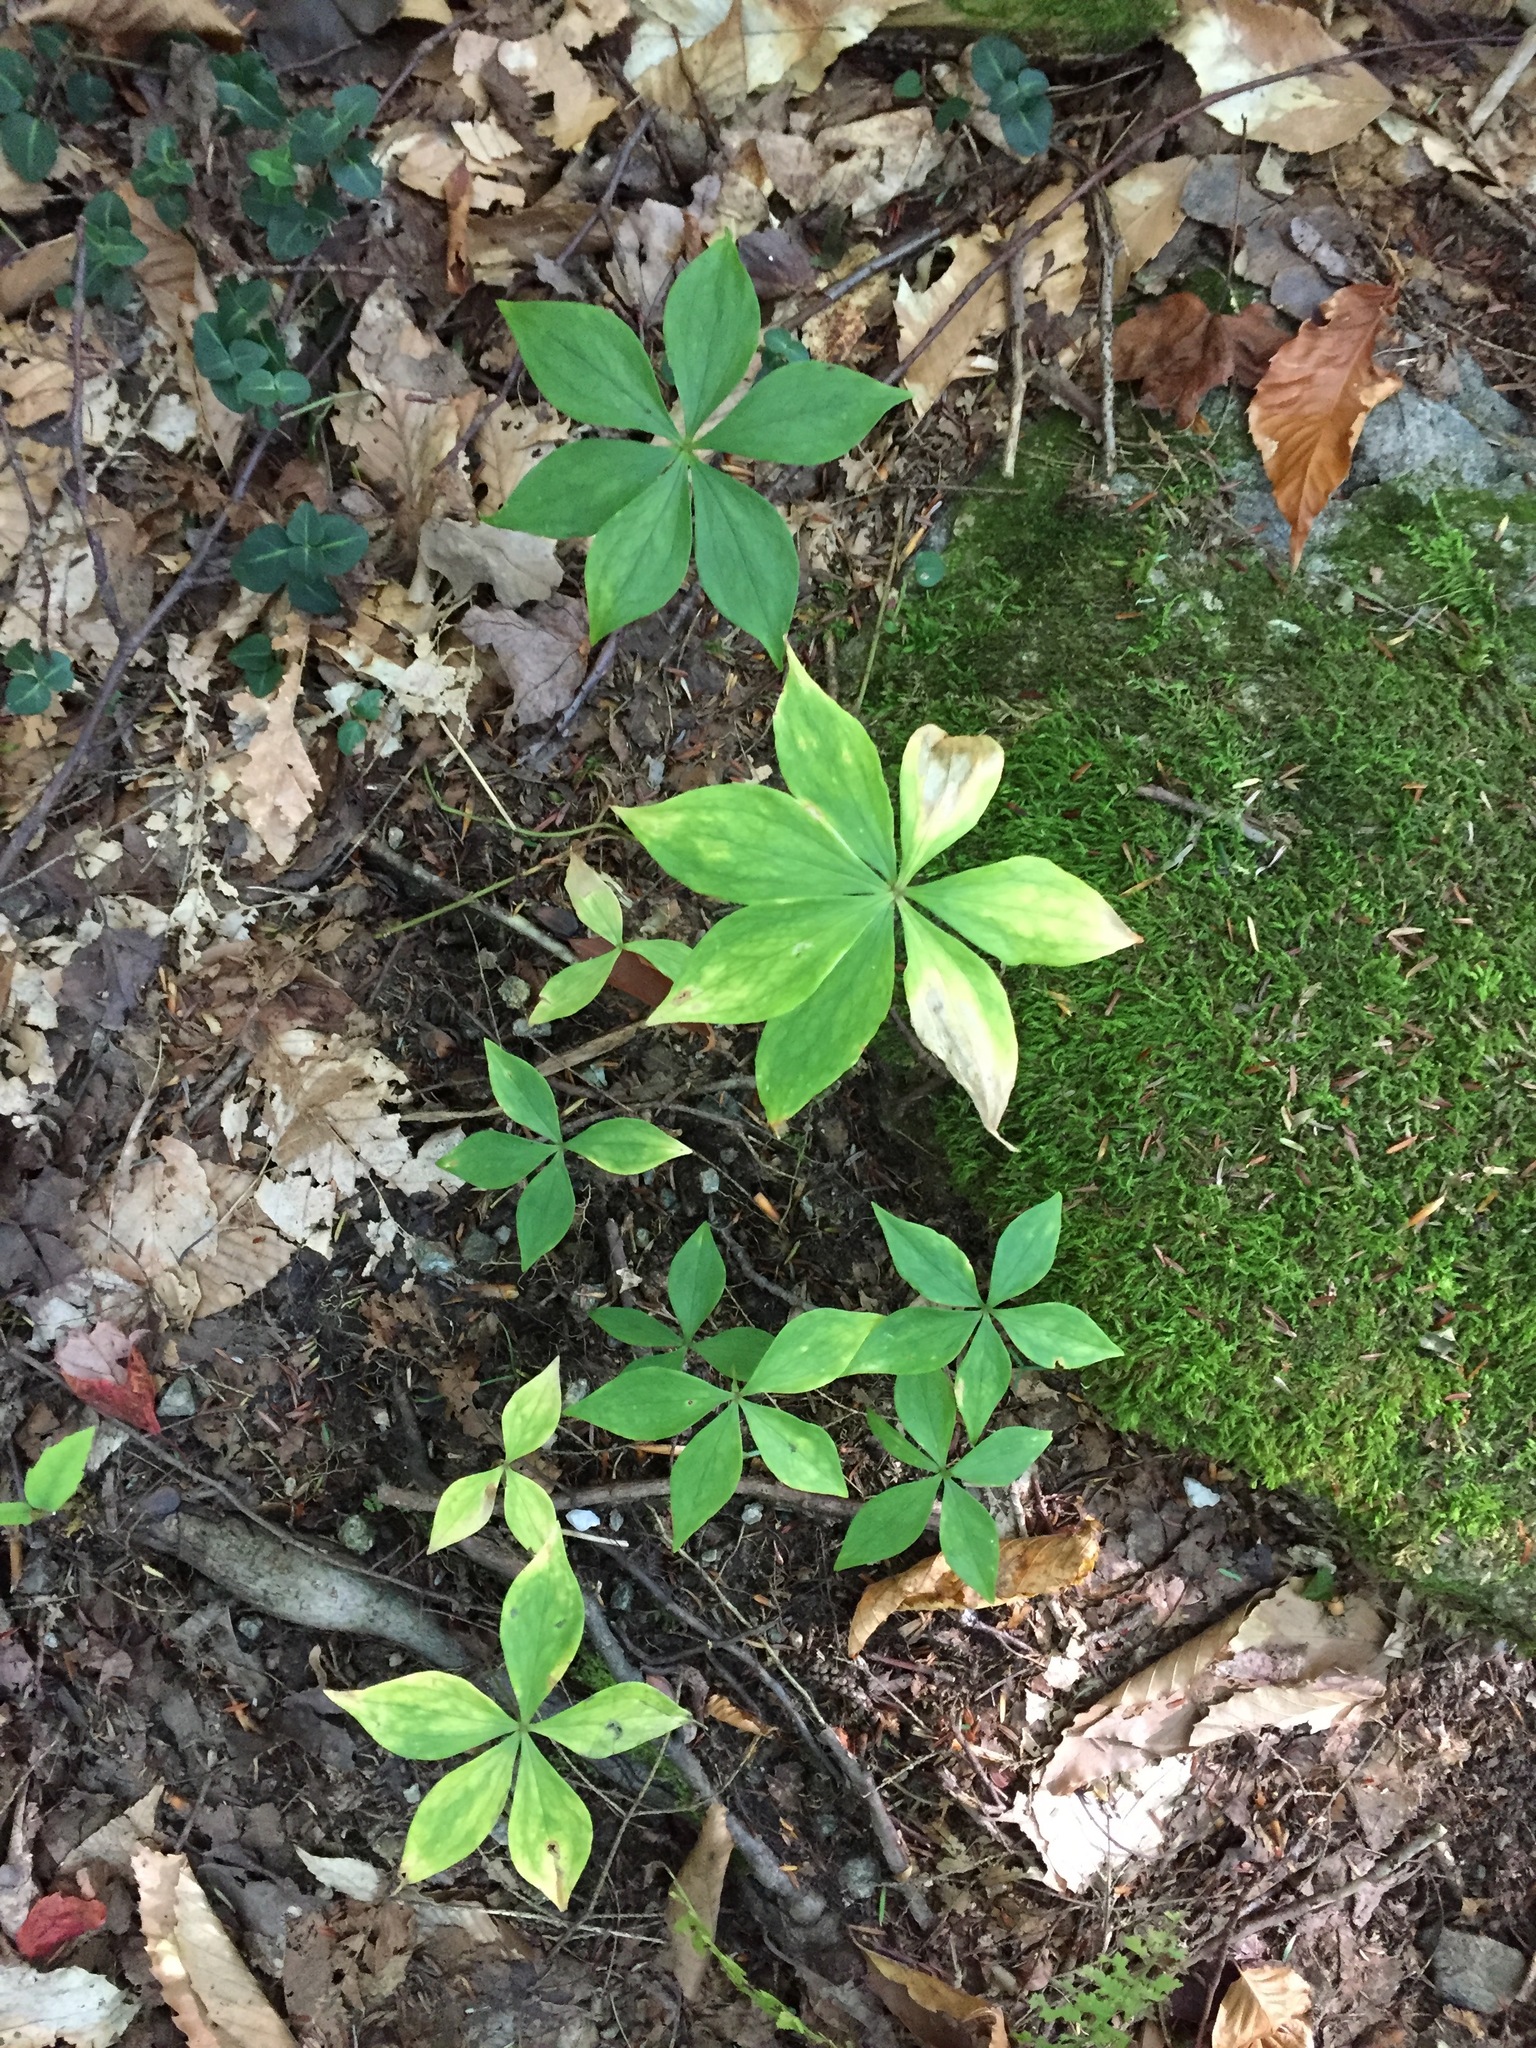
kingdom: Plantae
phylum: Tracheophyta
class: Liliopsida
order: Liliales
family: Liliaceae
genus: Medeola
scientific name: Medeola virginiana
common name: Indian cucumber-root
